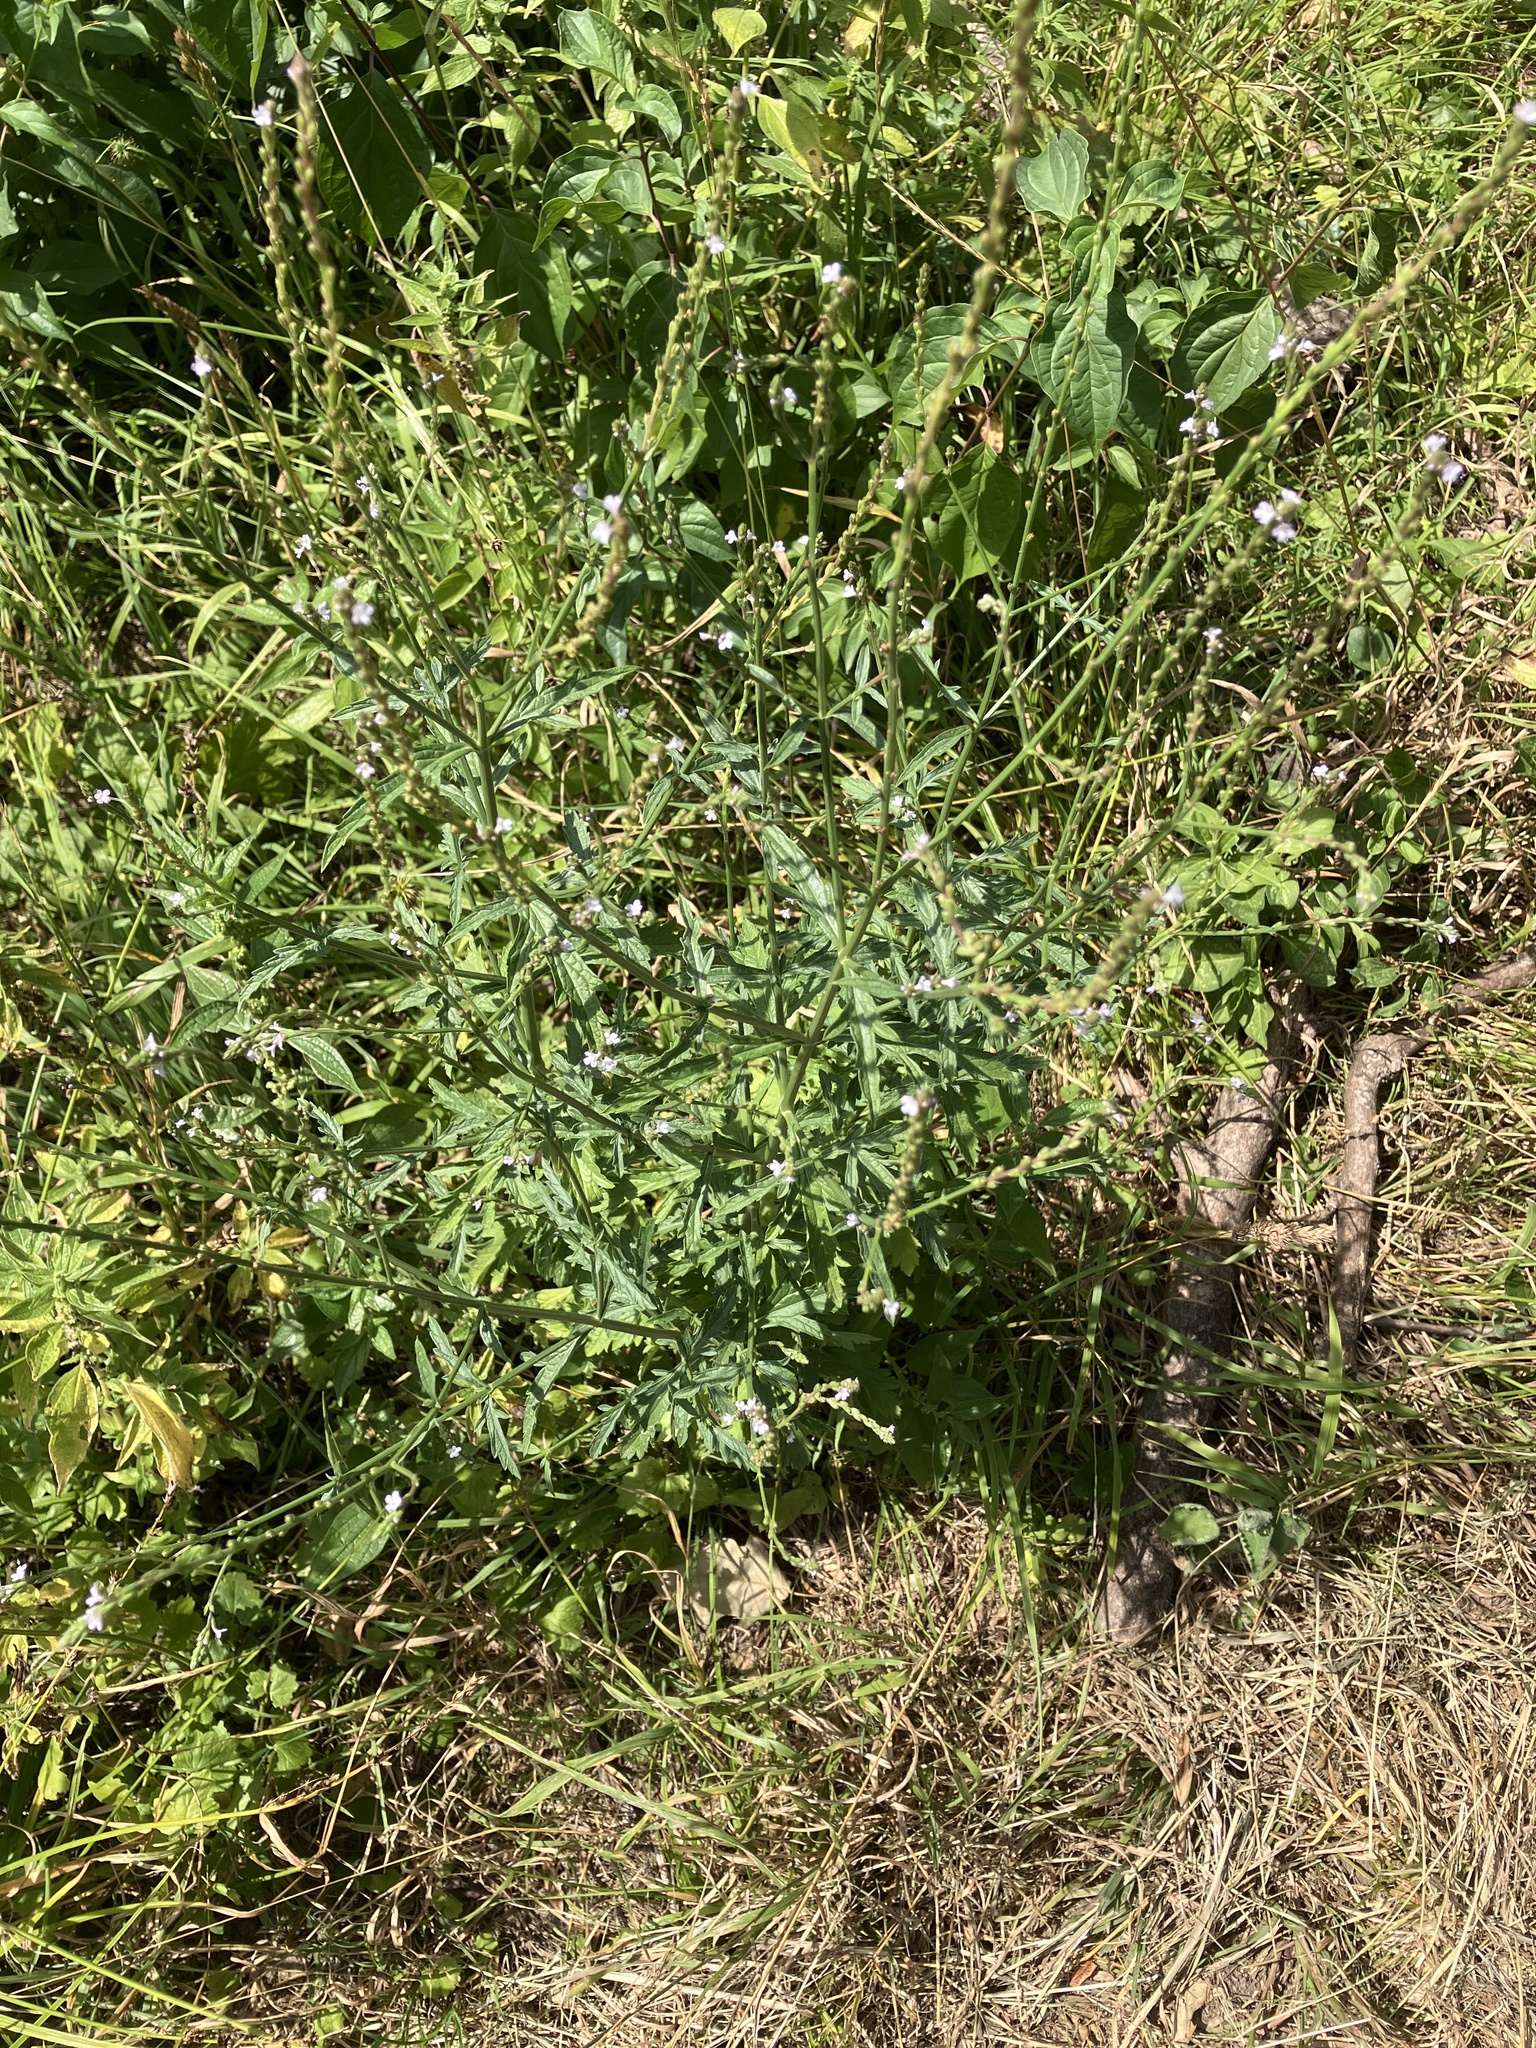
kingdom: Plantae
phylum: Tracheophyta
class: Magnoliopsida
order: Lamiales
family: Verbenaceae
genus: Verbena
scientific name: Verbena officinalis
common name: Vervain
